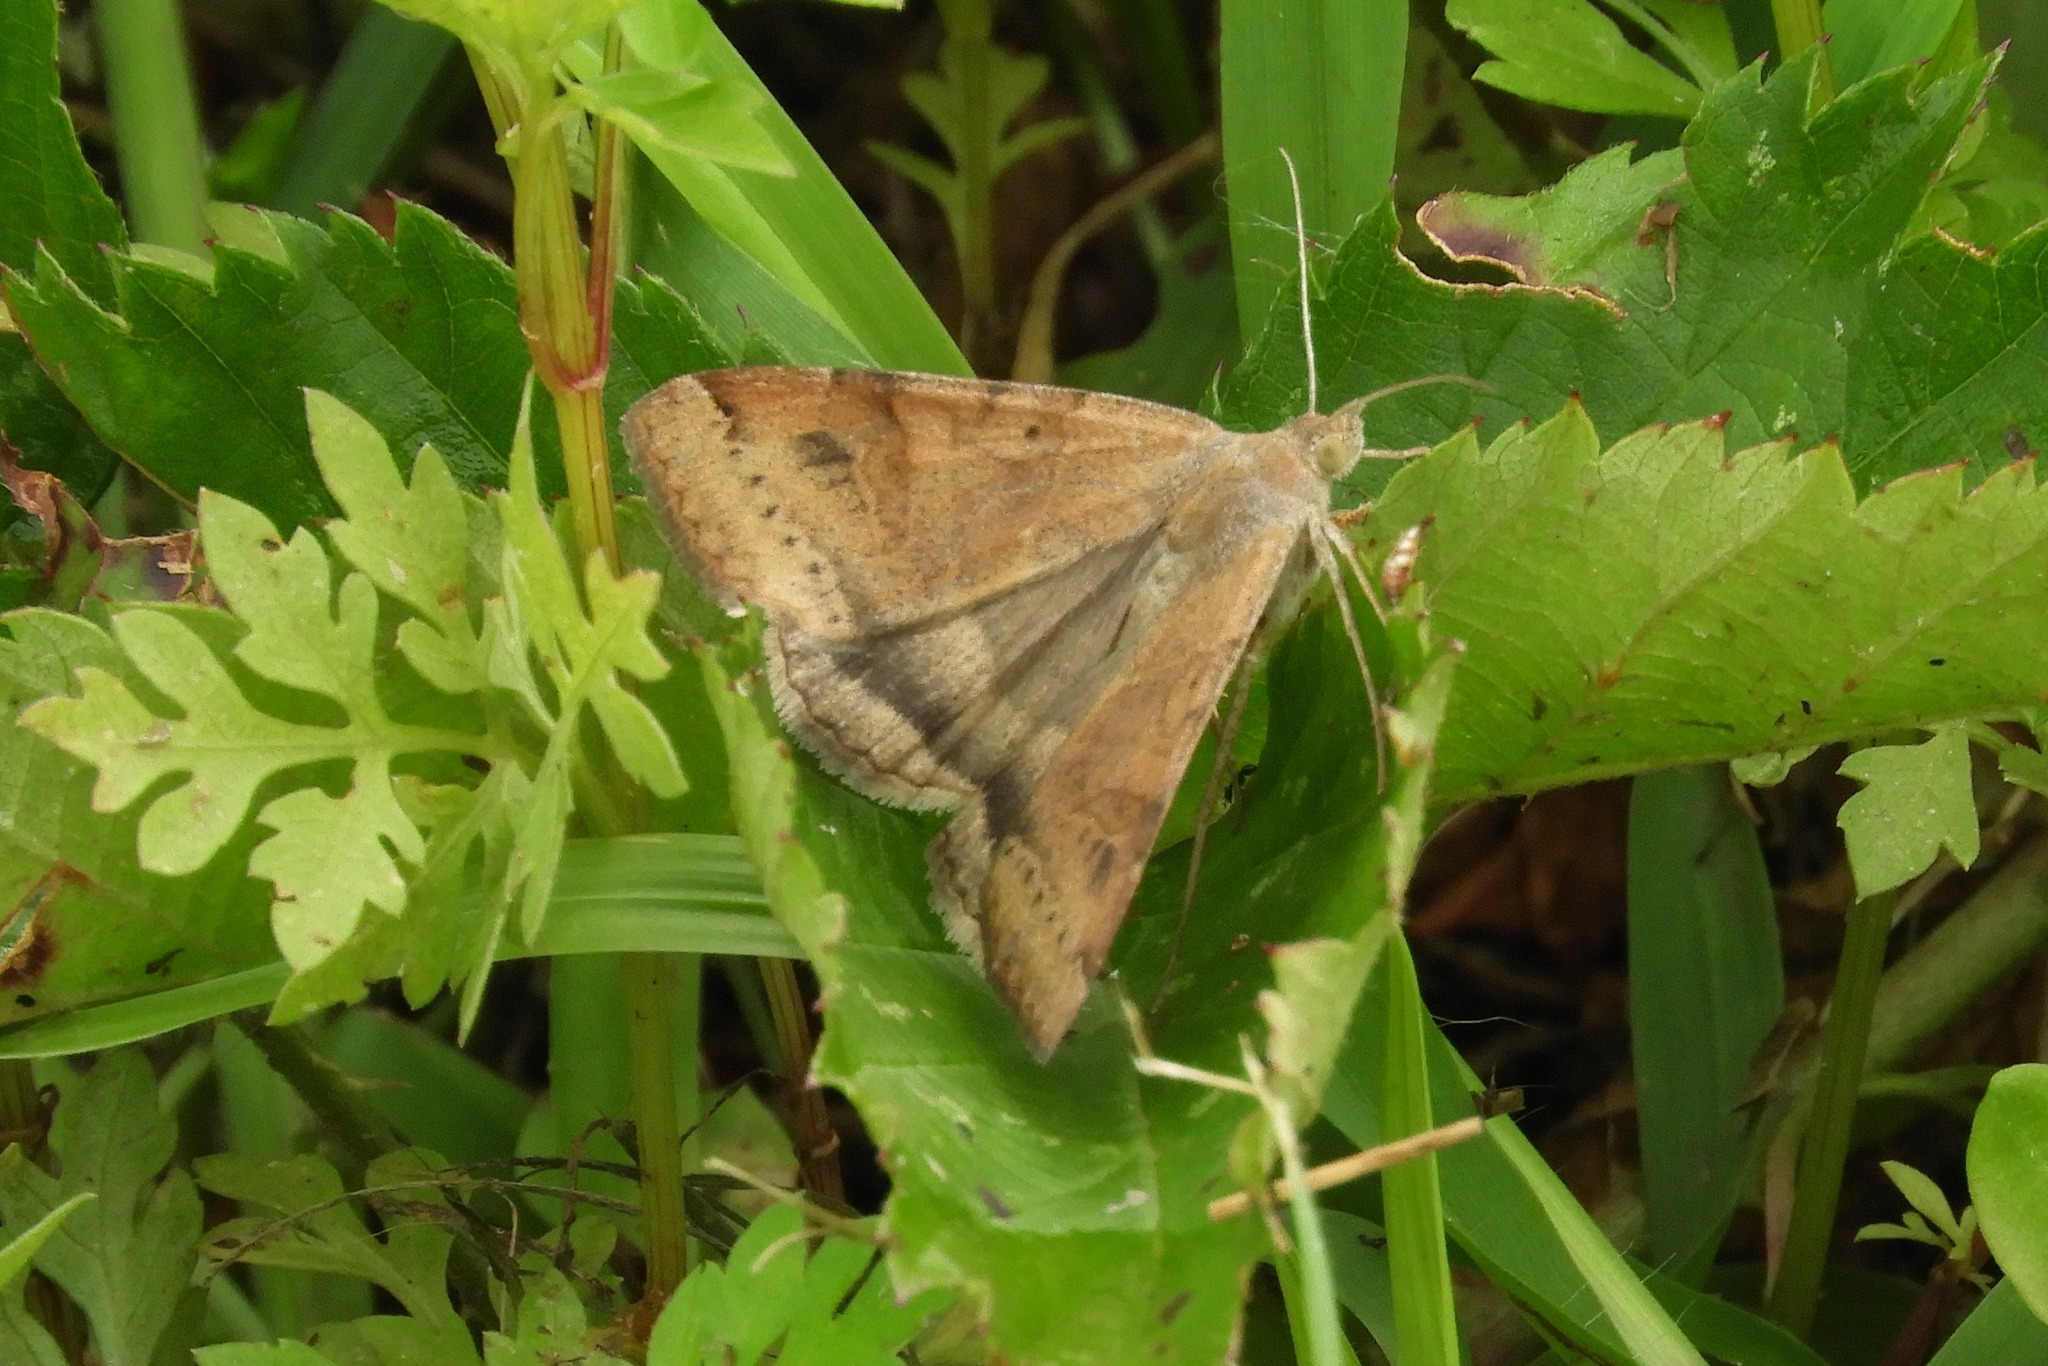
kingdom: Animalia
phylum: Arthropoda
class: Insecta
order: Lepidoptera
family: Erebidae
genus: Caenurgina
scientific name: Caenurgina erechtea
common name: Forage looper moth
